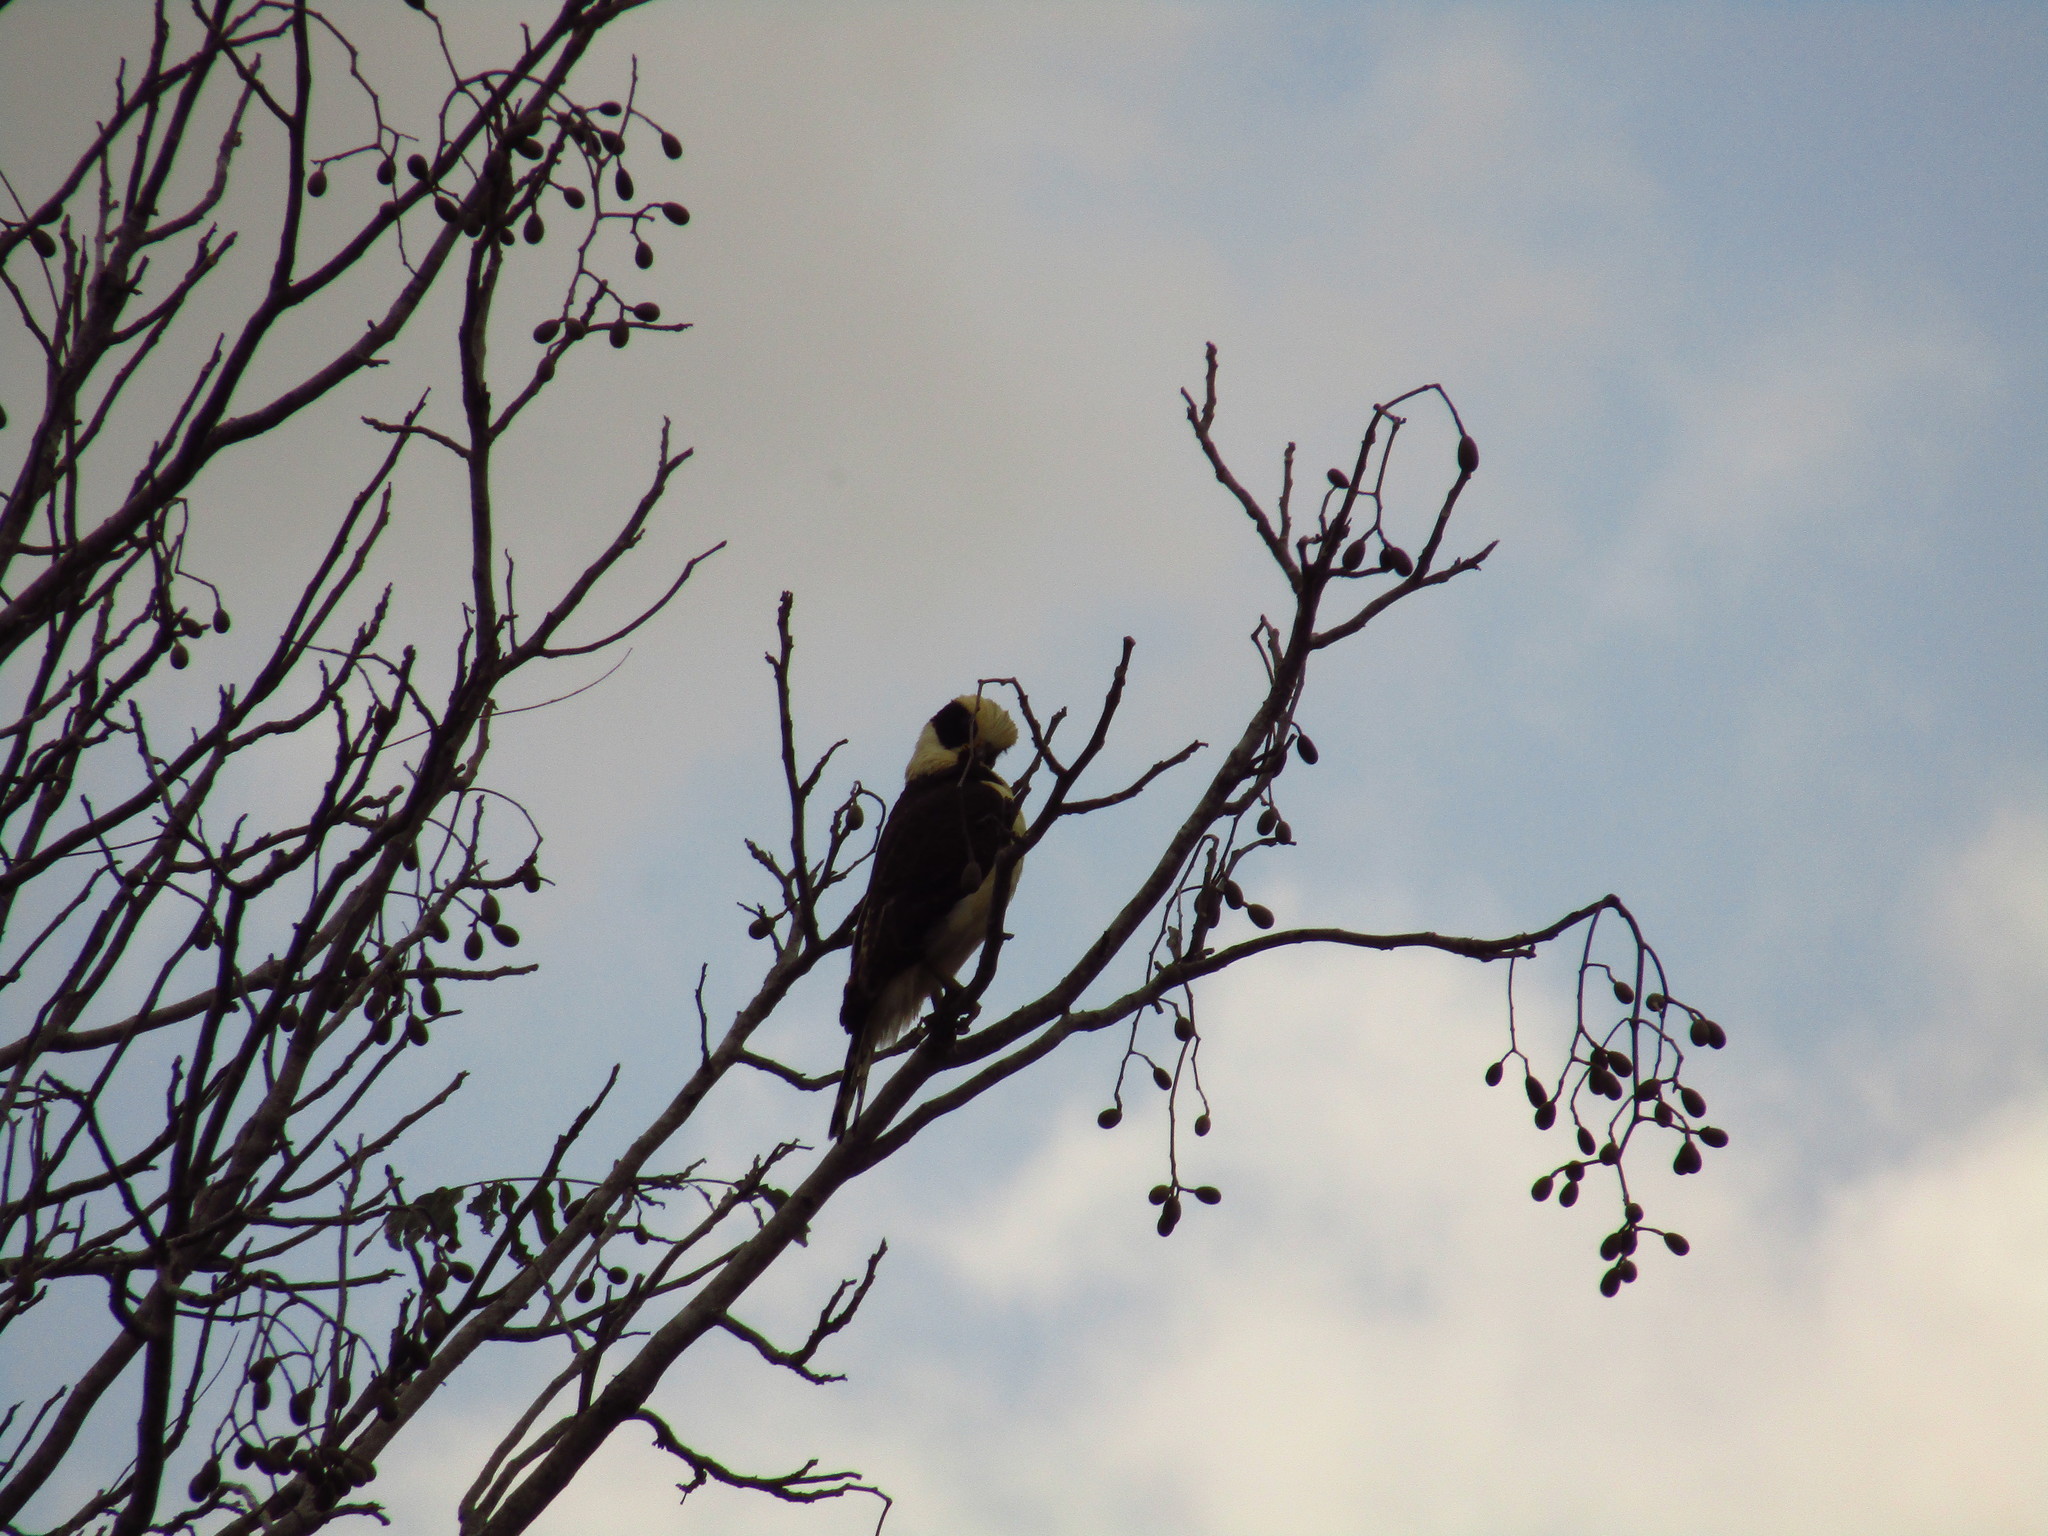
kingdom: Animalia
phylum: Chordata
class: Aves
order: Falconiformes
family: Falconidae
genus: Herpetotheres
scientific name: Herpetotheres cachinnans
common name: Laughing falcon
